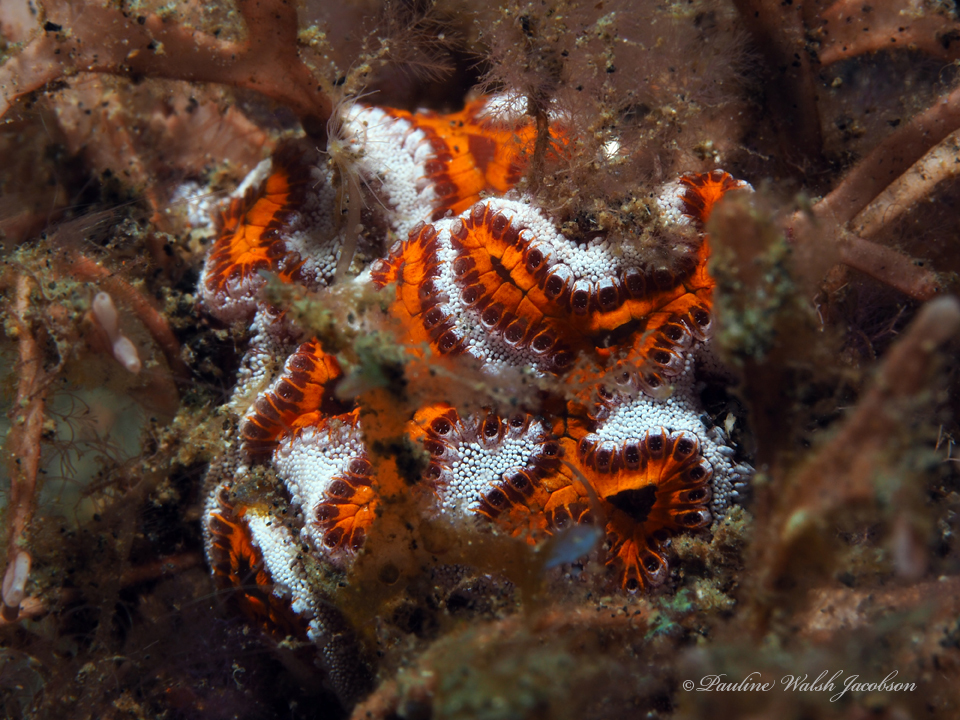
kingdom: Animalia
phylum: Chordata
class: Ascidiacea
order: Stolidobranchia
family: Styelidae
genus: Botrylloides
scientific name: Botrylloides leachii
